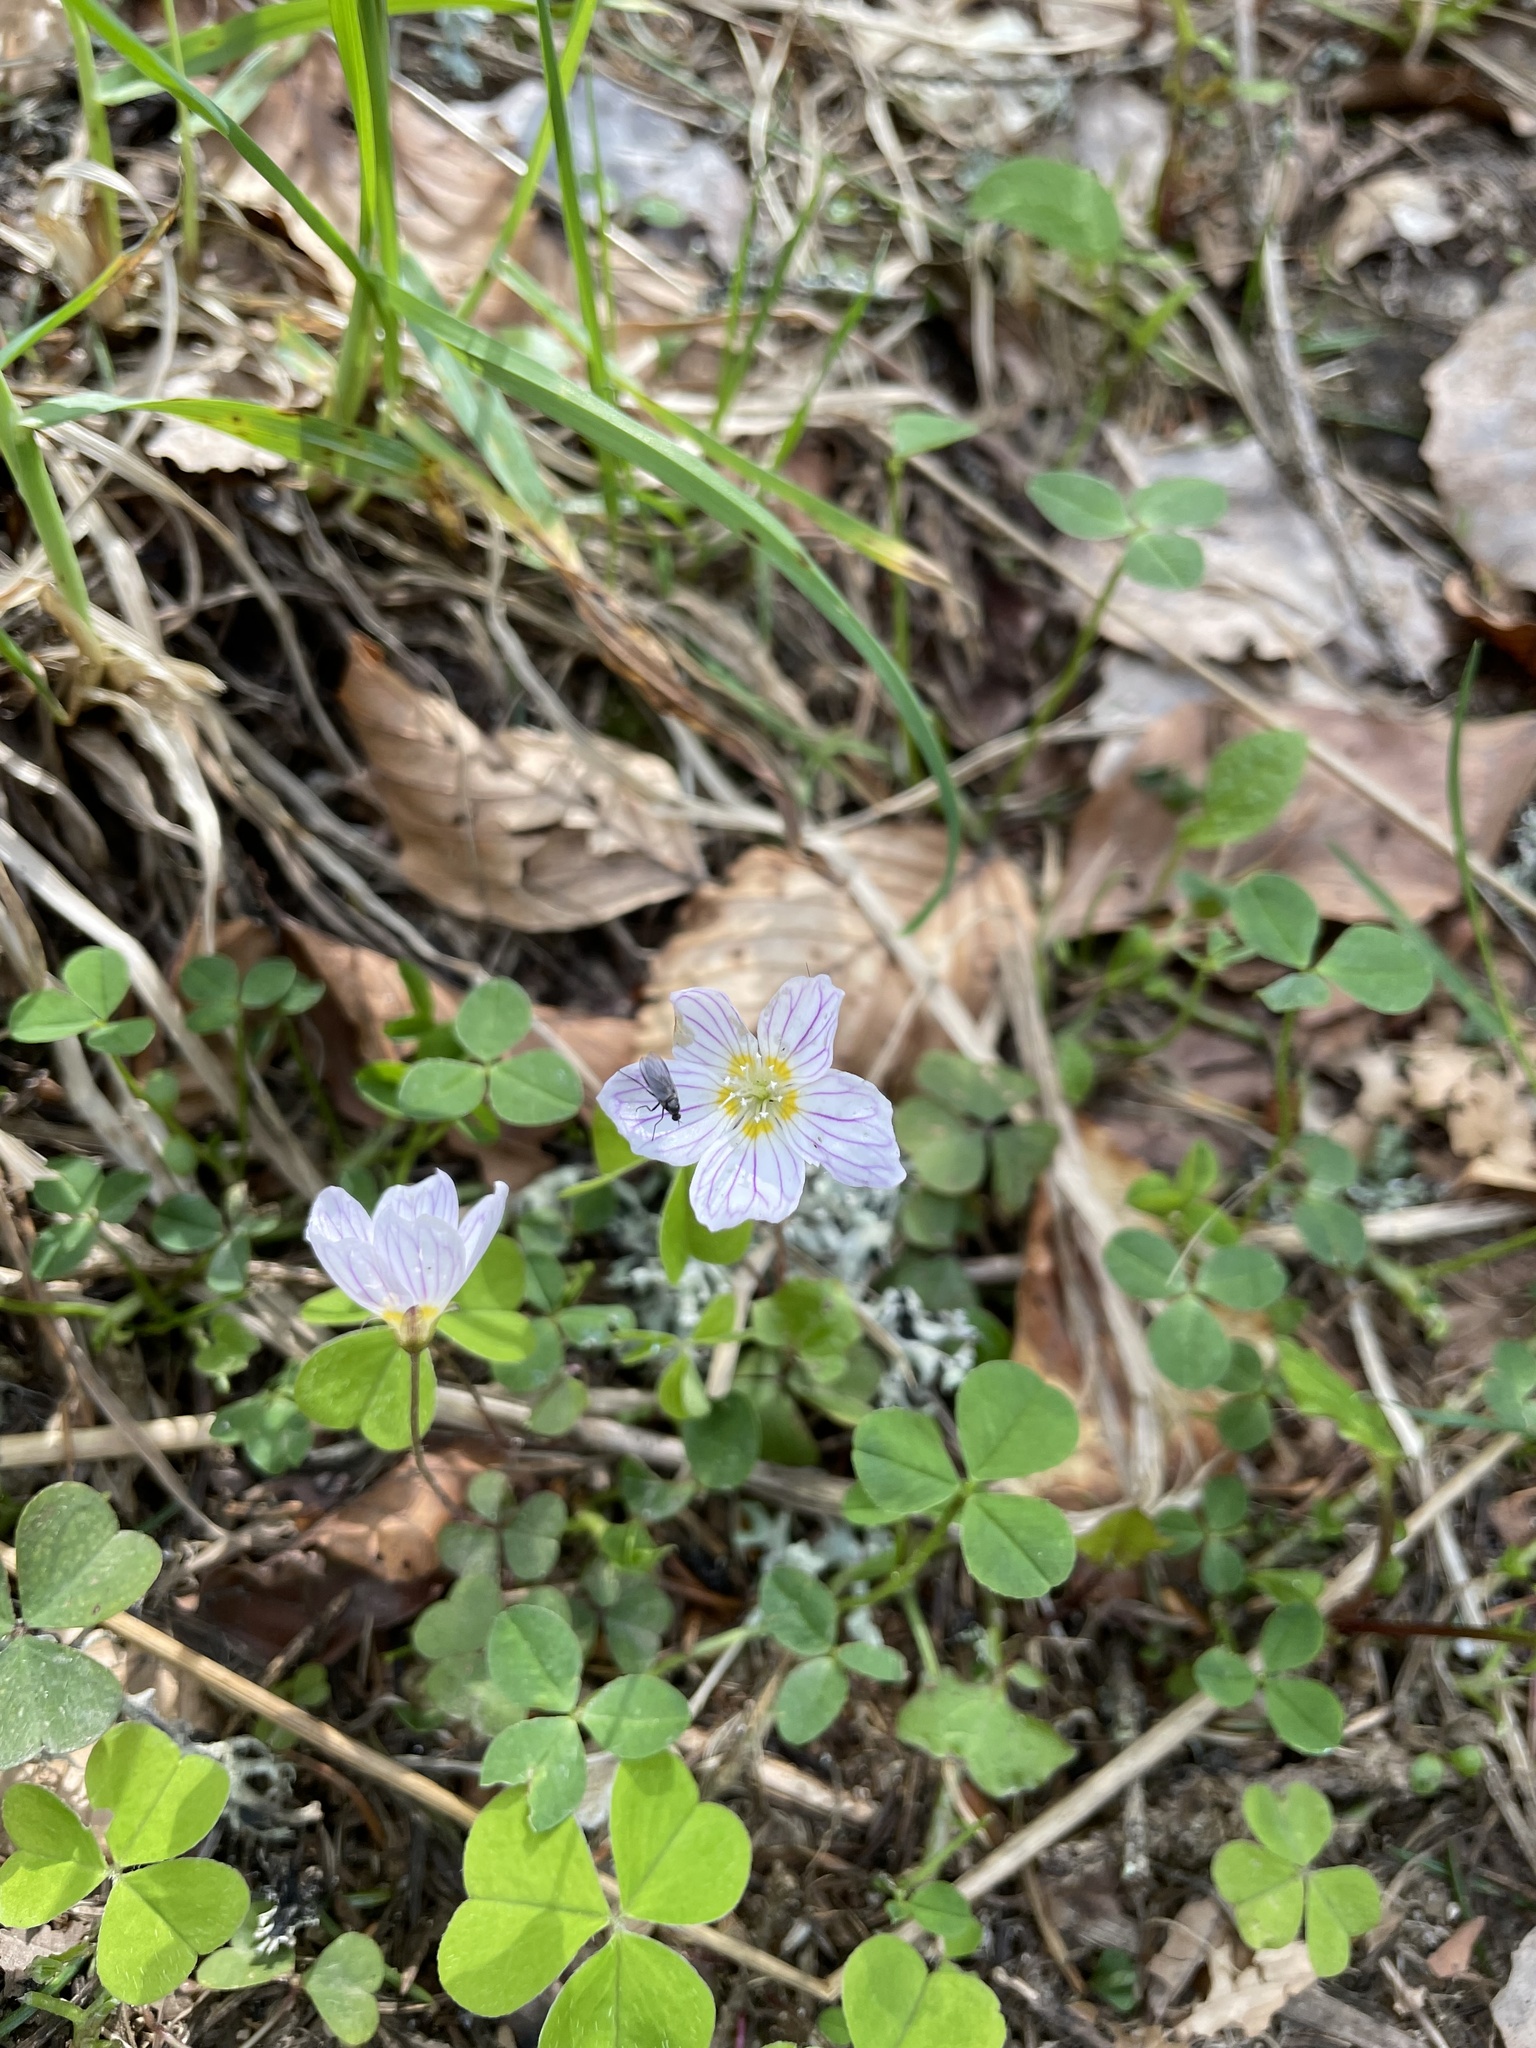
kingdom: Plantae
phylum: Tracheophyta
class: Magnoliopsida
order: Oxalidales
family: Oxalidaceae
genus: Oxalis
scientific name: Oxalis acetosella
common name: Wood-sorrel
